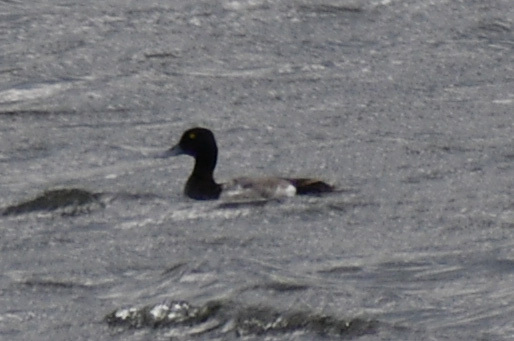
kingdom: Animalia
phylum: Chordata
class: Aves
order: Anseriformes
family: Anatidae
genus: Aythya
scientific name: Aythya affinis
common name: Lesser scaup
